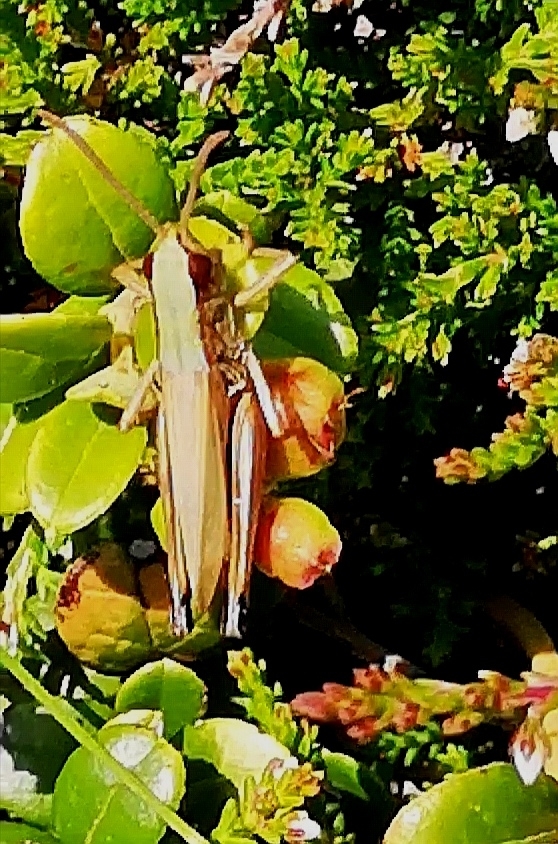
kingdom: Animalia
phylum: Arthropoda
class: Insecta
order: Orthoptera
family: Acrididae
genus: Pseudochorthippus
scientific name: Pseudochorthippus parallelus
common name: Meadow grasshopper
